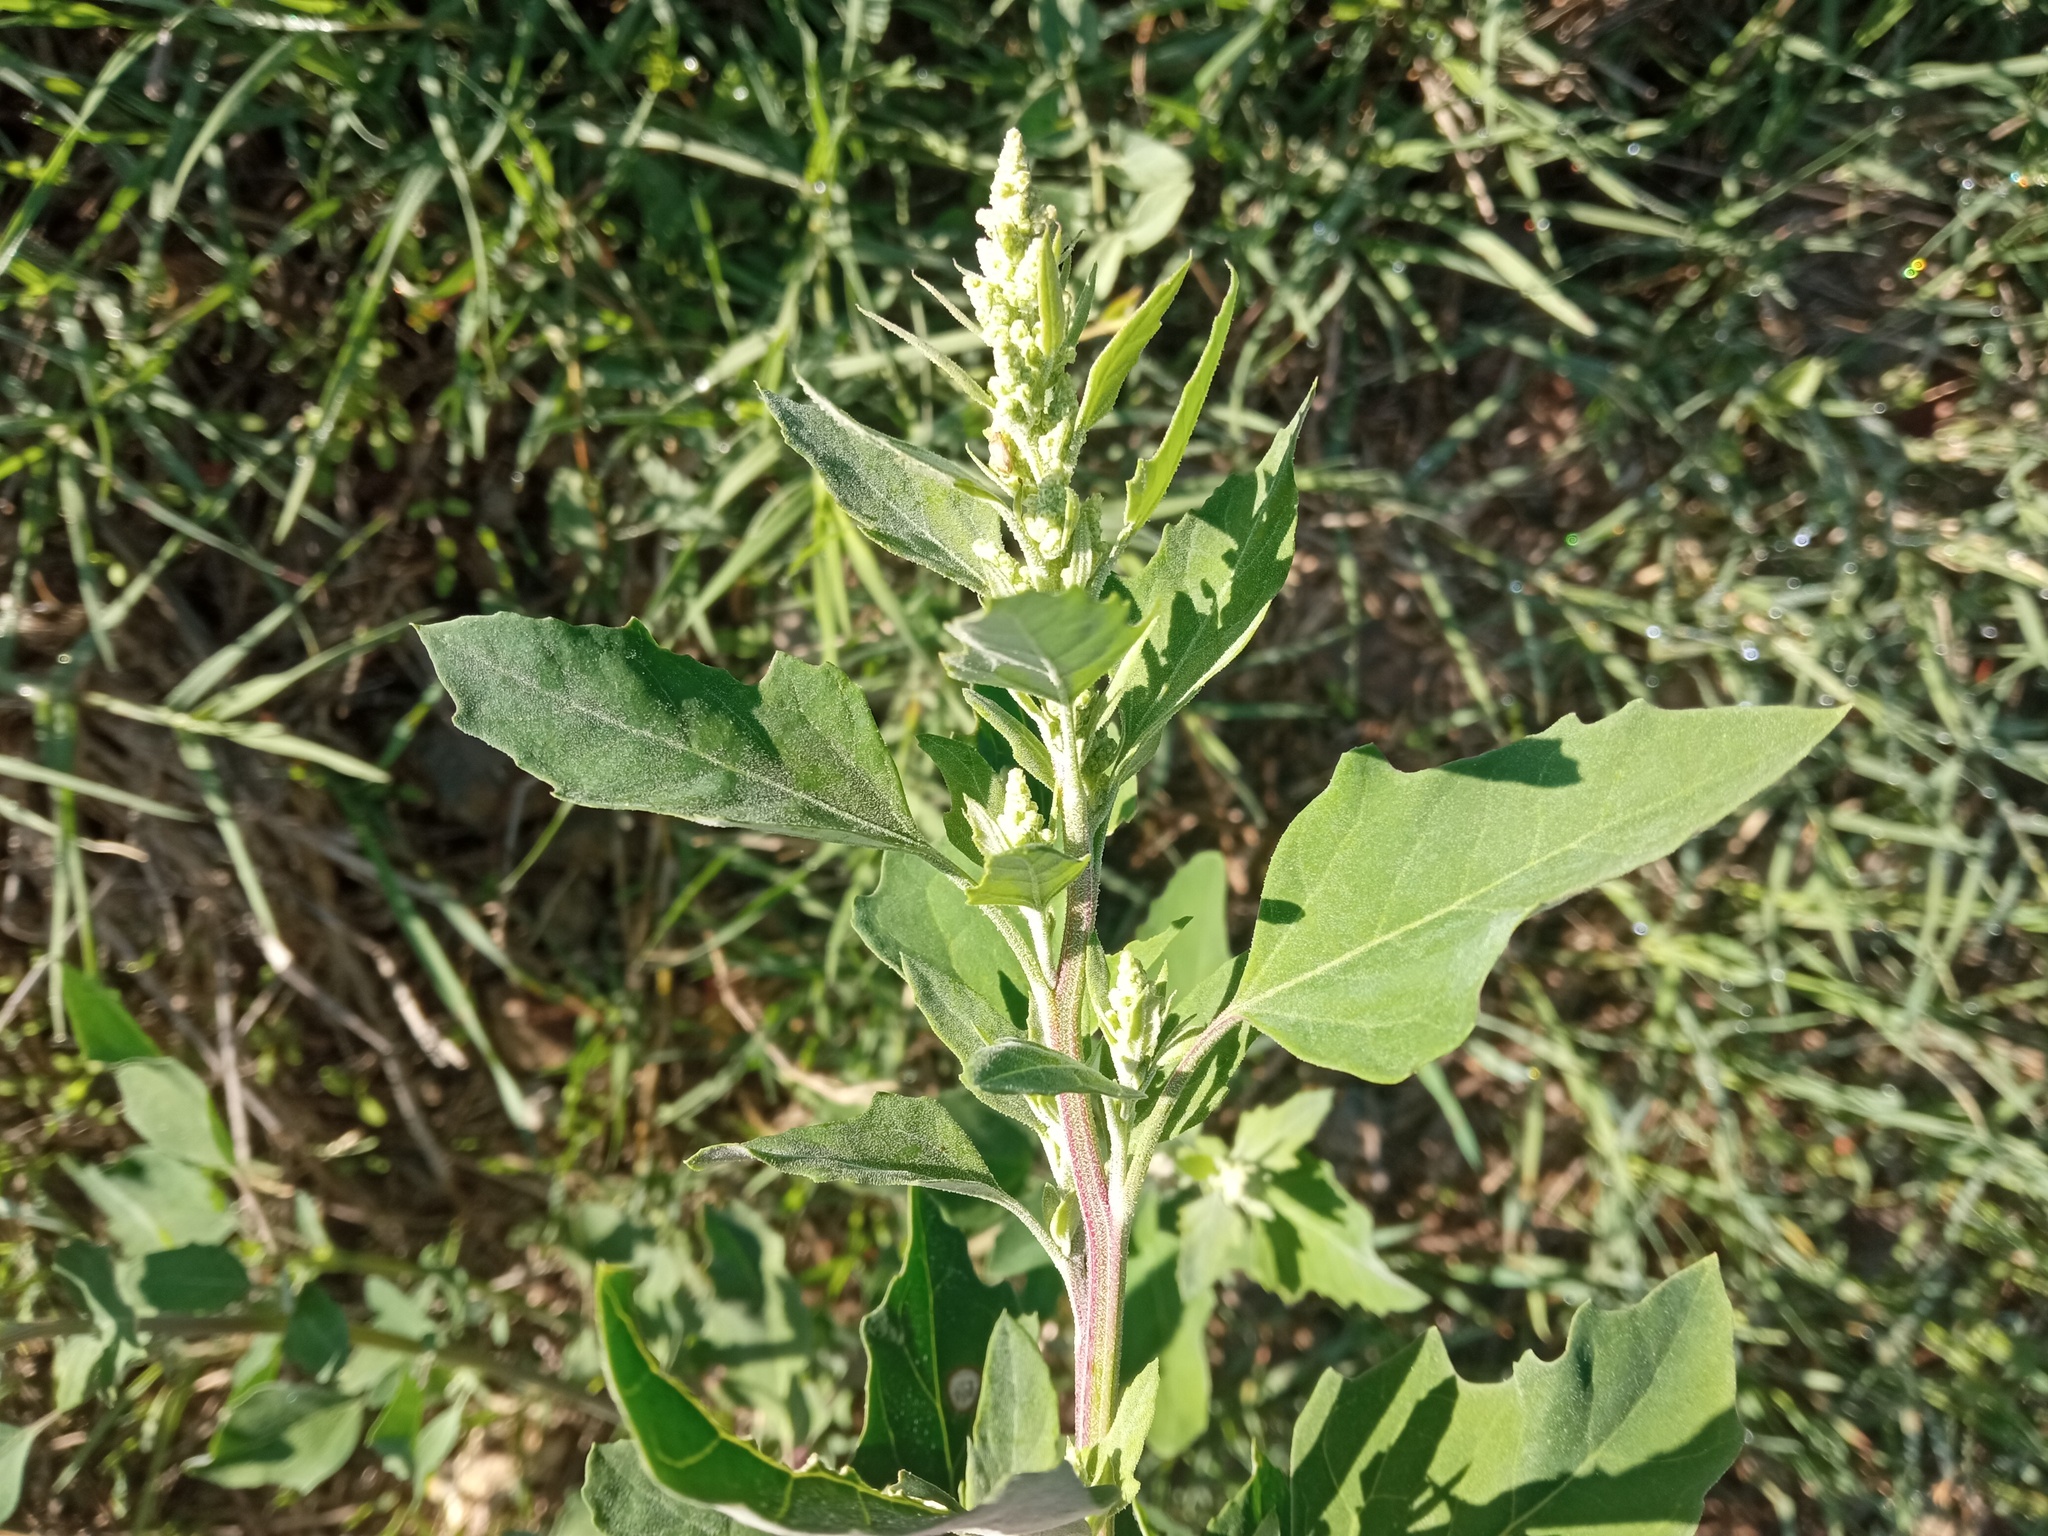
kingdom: Plantae
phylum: Tracheophyta
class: Magnoliopsida
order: Caryophyllales
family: Amaranthaceae
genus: Chenopodium
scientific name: Chenopodium album
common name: Fat-hen
